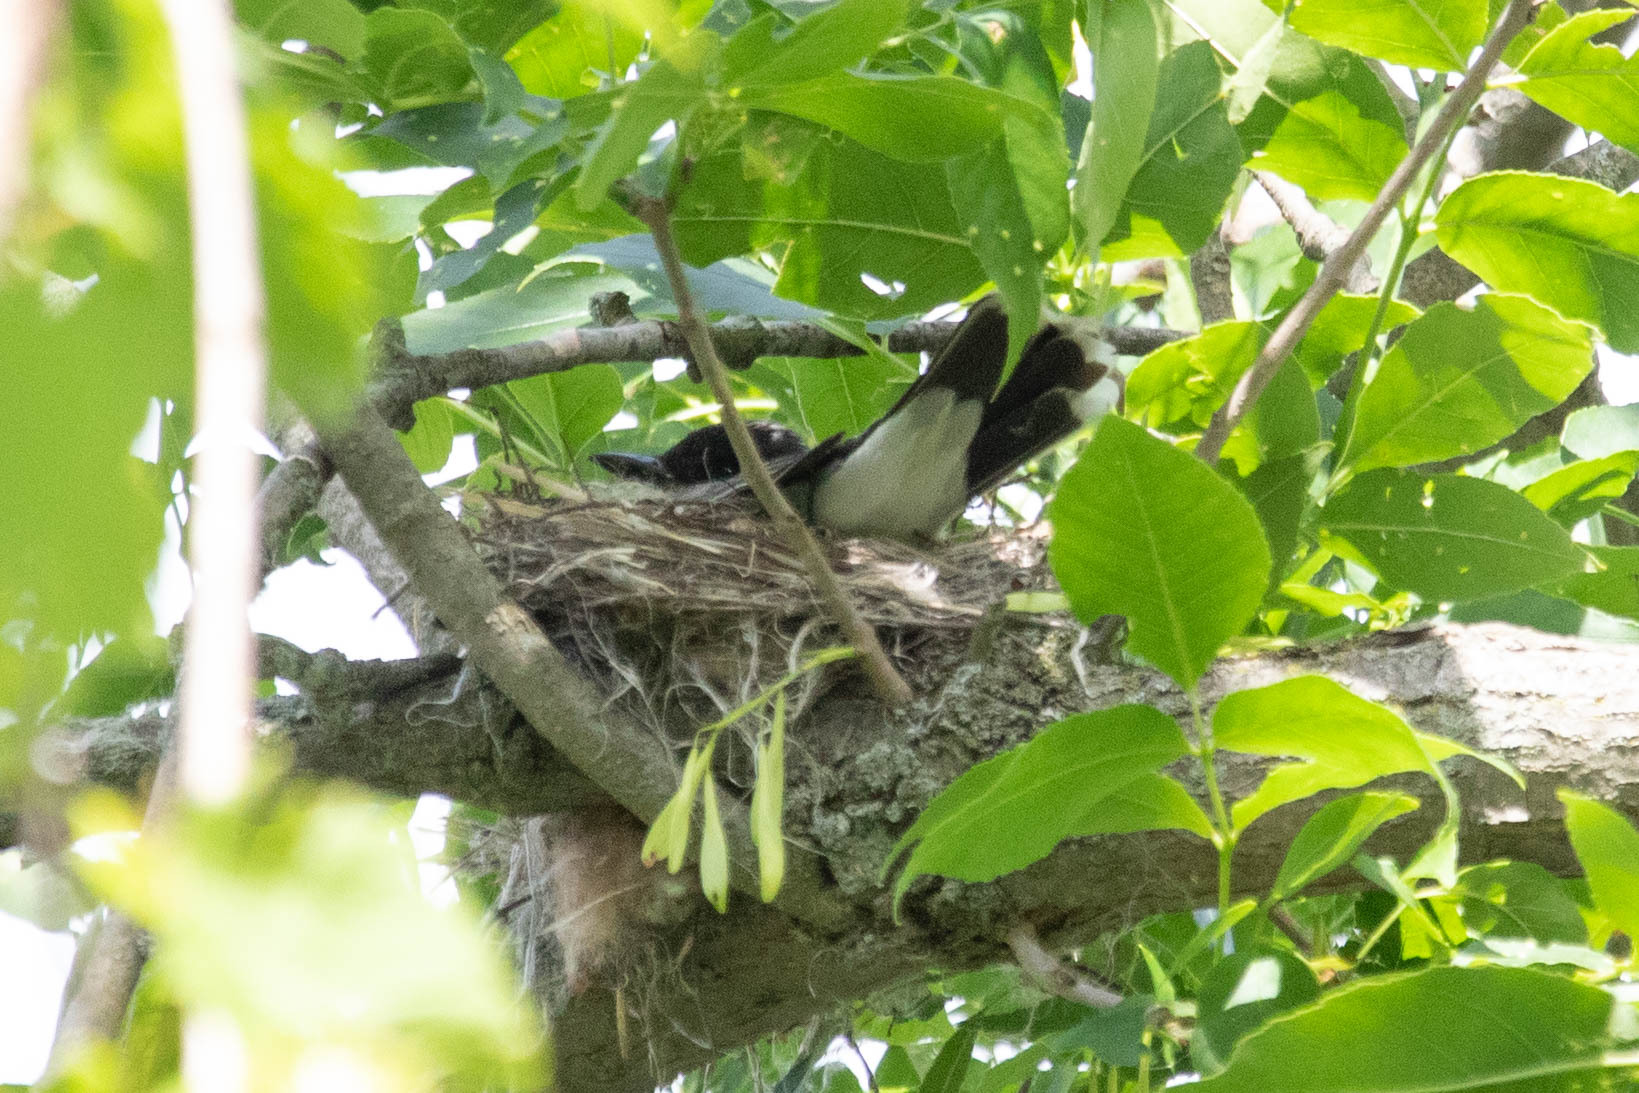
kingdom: Animalia
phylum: Chordata
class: Aves
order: Passeriformes
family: Tyrannidae
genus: Tyrannus
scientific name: Tyrannus tyrannus
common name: Eastern kingbird
